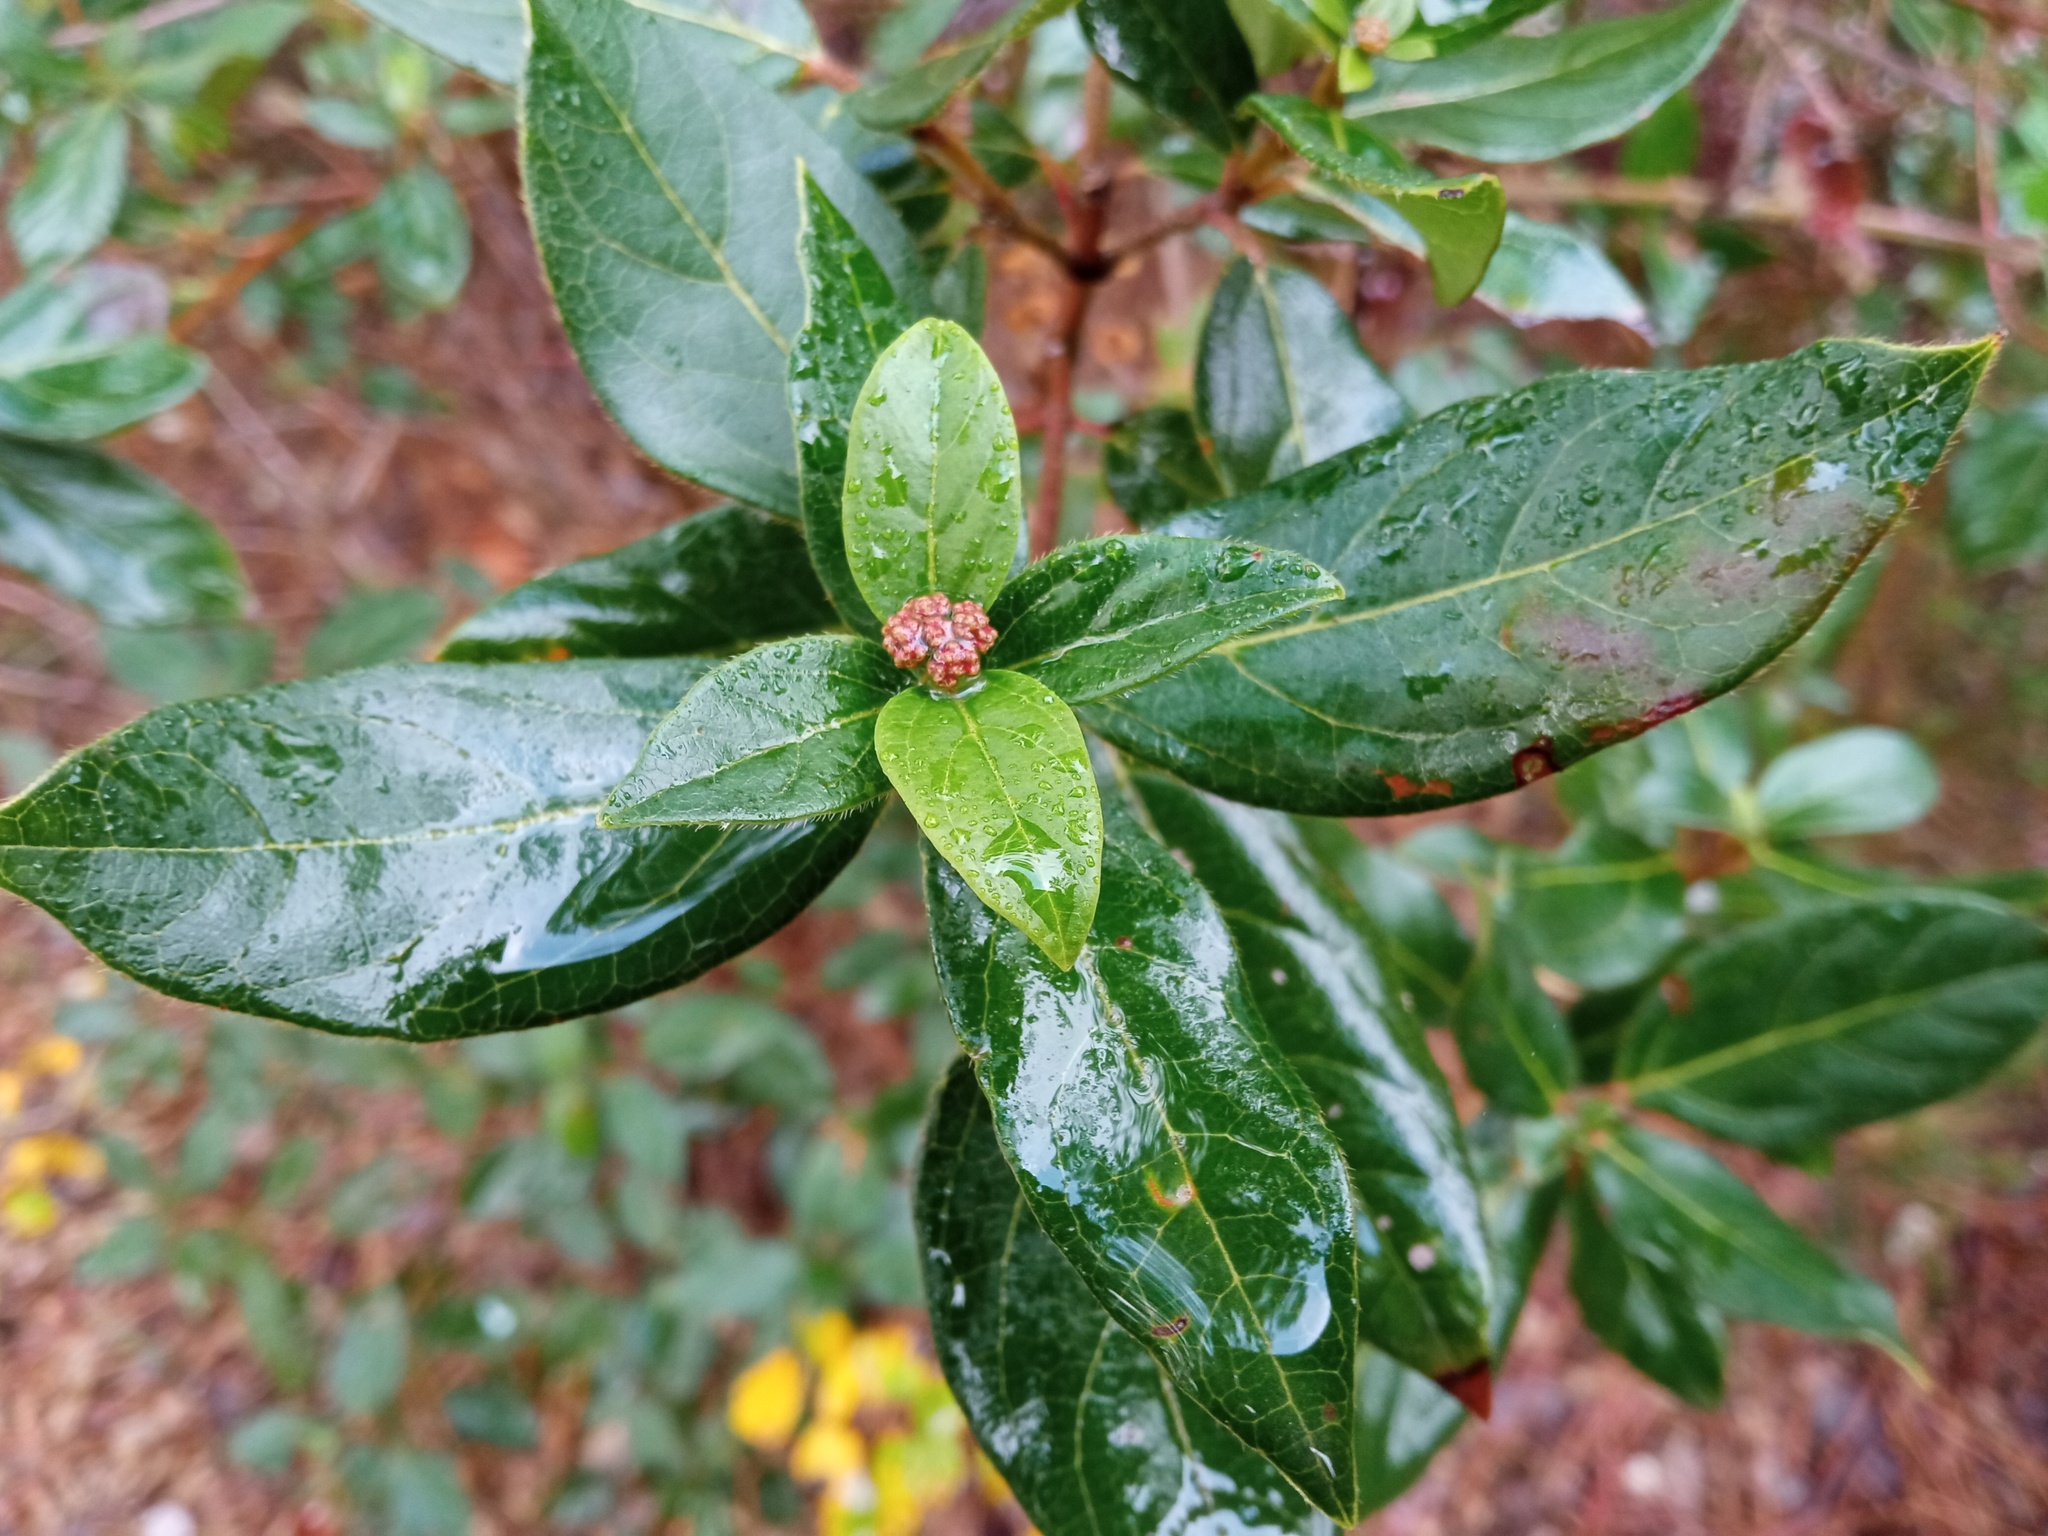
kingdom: Plantae
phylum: Tracheophyta
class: Magnoliopsida
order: Dipsacales
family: Viburnaceae
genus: Viburnum
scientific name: Viburnum tinus
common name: Laurustinus
